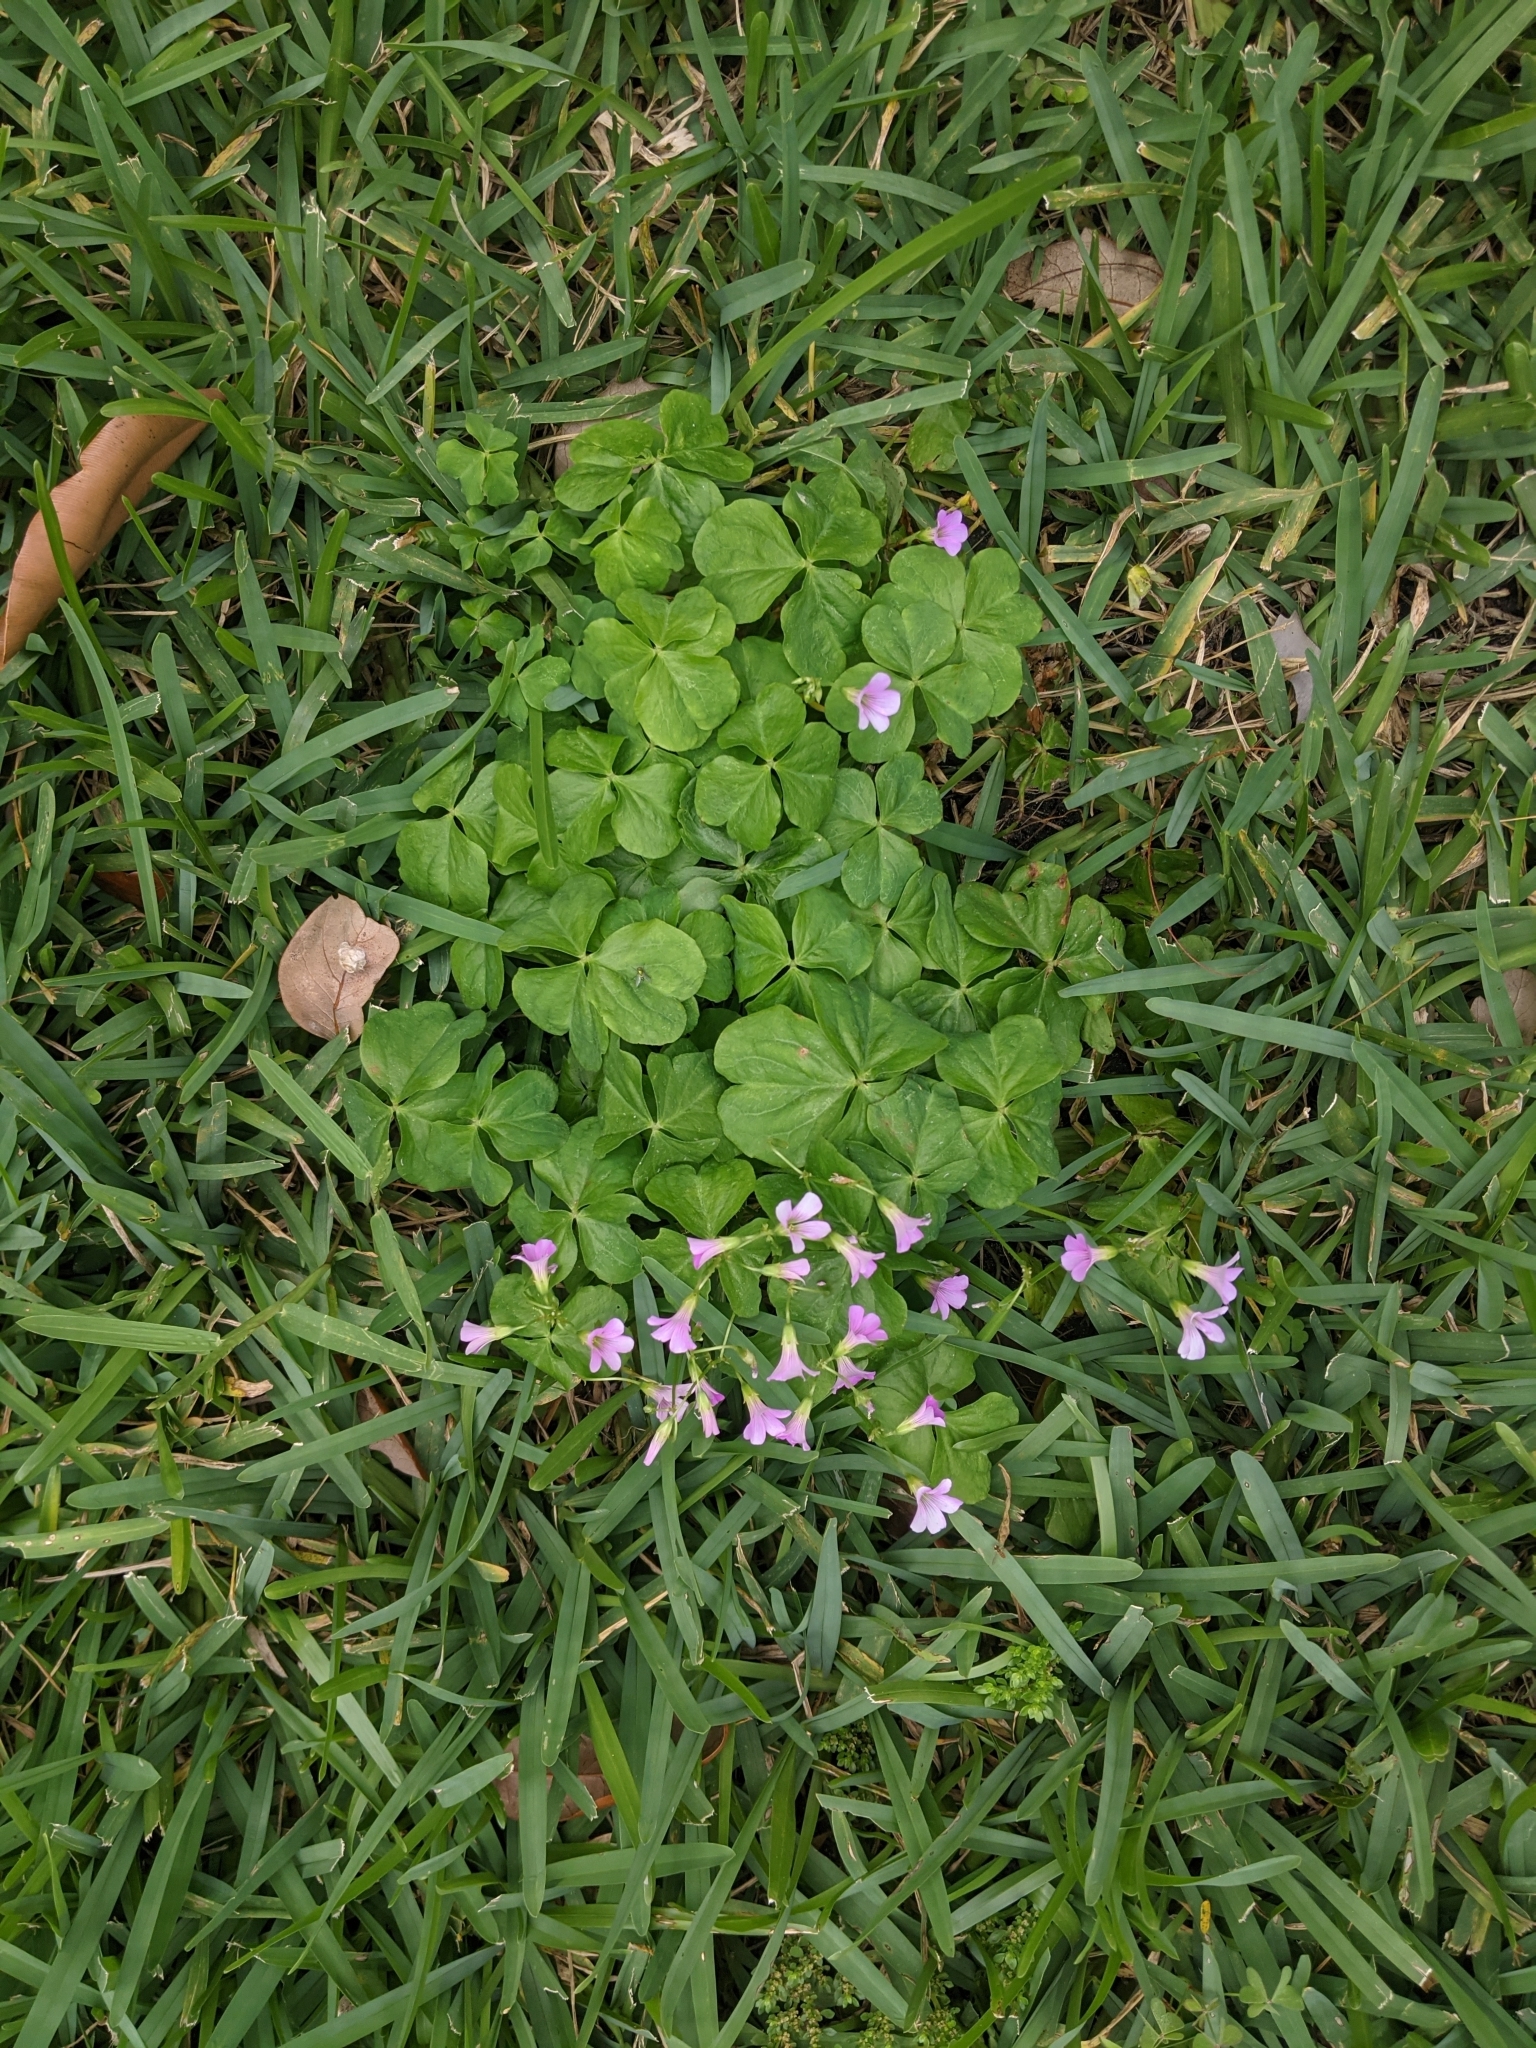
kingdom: Plantae
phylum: Tracheophyta
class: Magnoliopsida
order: Oxalidales
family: Oxalidaceae
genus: Oxalis
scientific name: Oxalis debilis
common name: Large-flowered pink-sorrel
